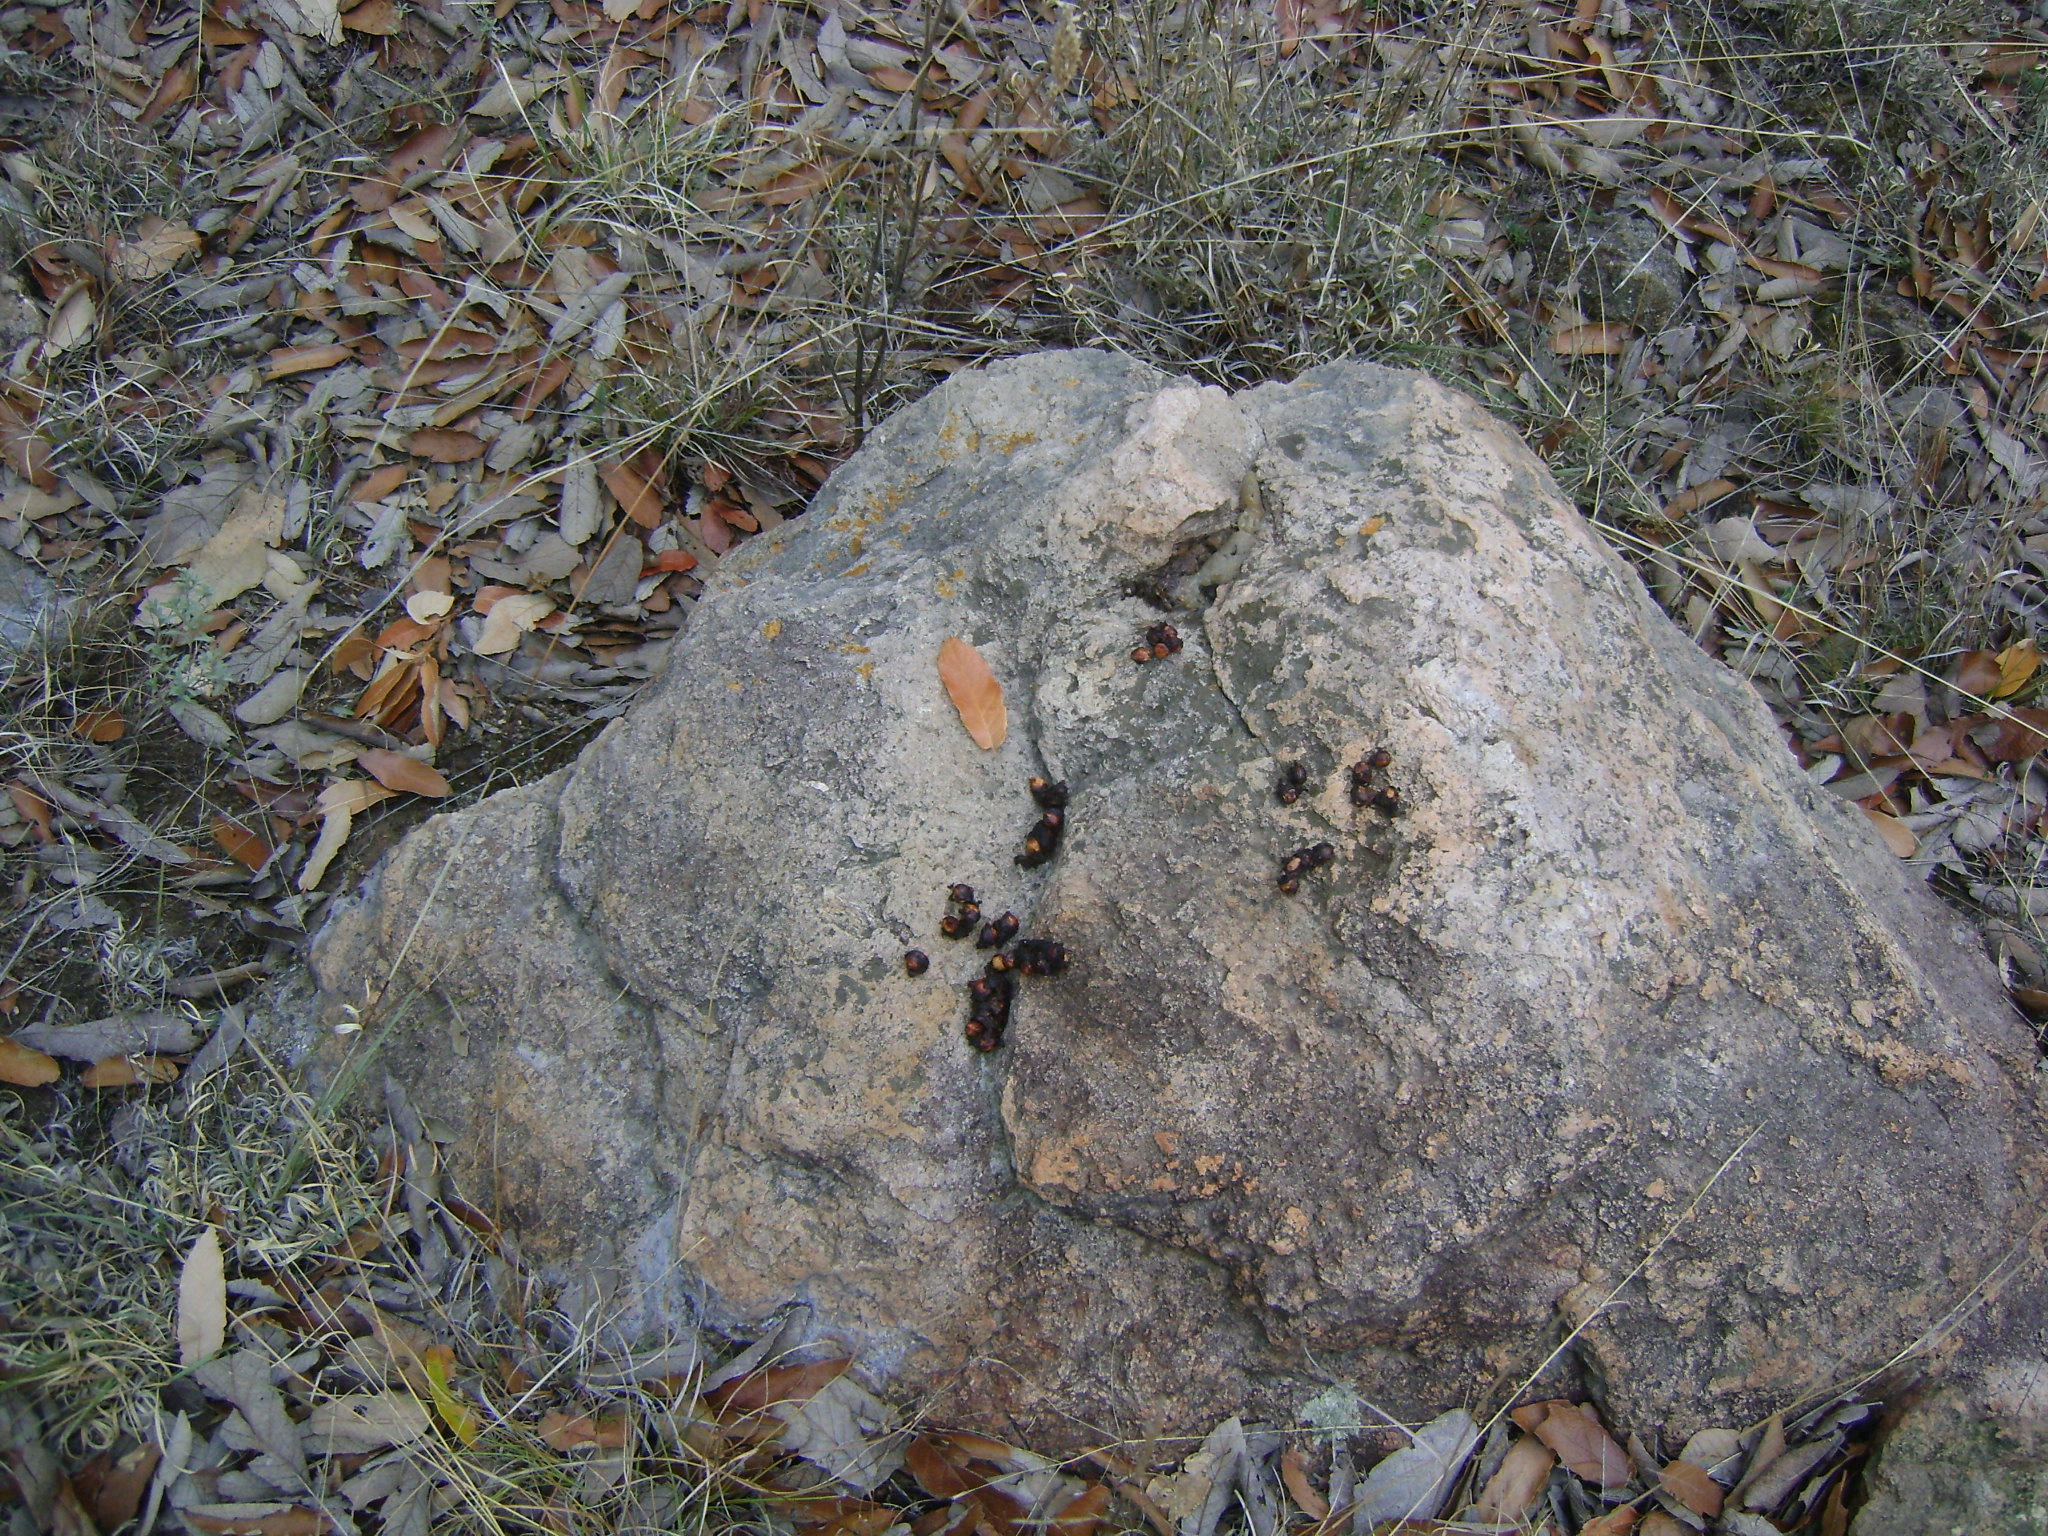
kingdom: Animalia
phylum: Chordata
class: Mammalia
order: Carnivora
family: Canidae
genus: Urocyon
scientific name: Urocyon cinereoargenteus
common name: Gray fox
